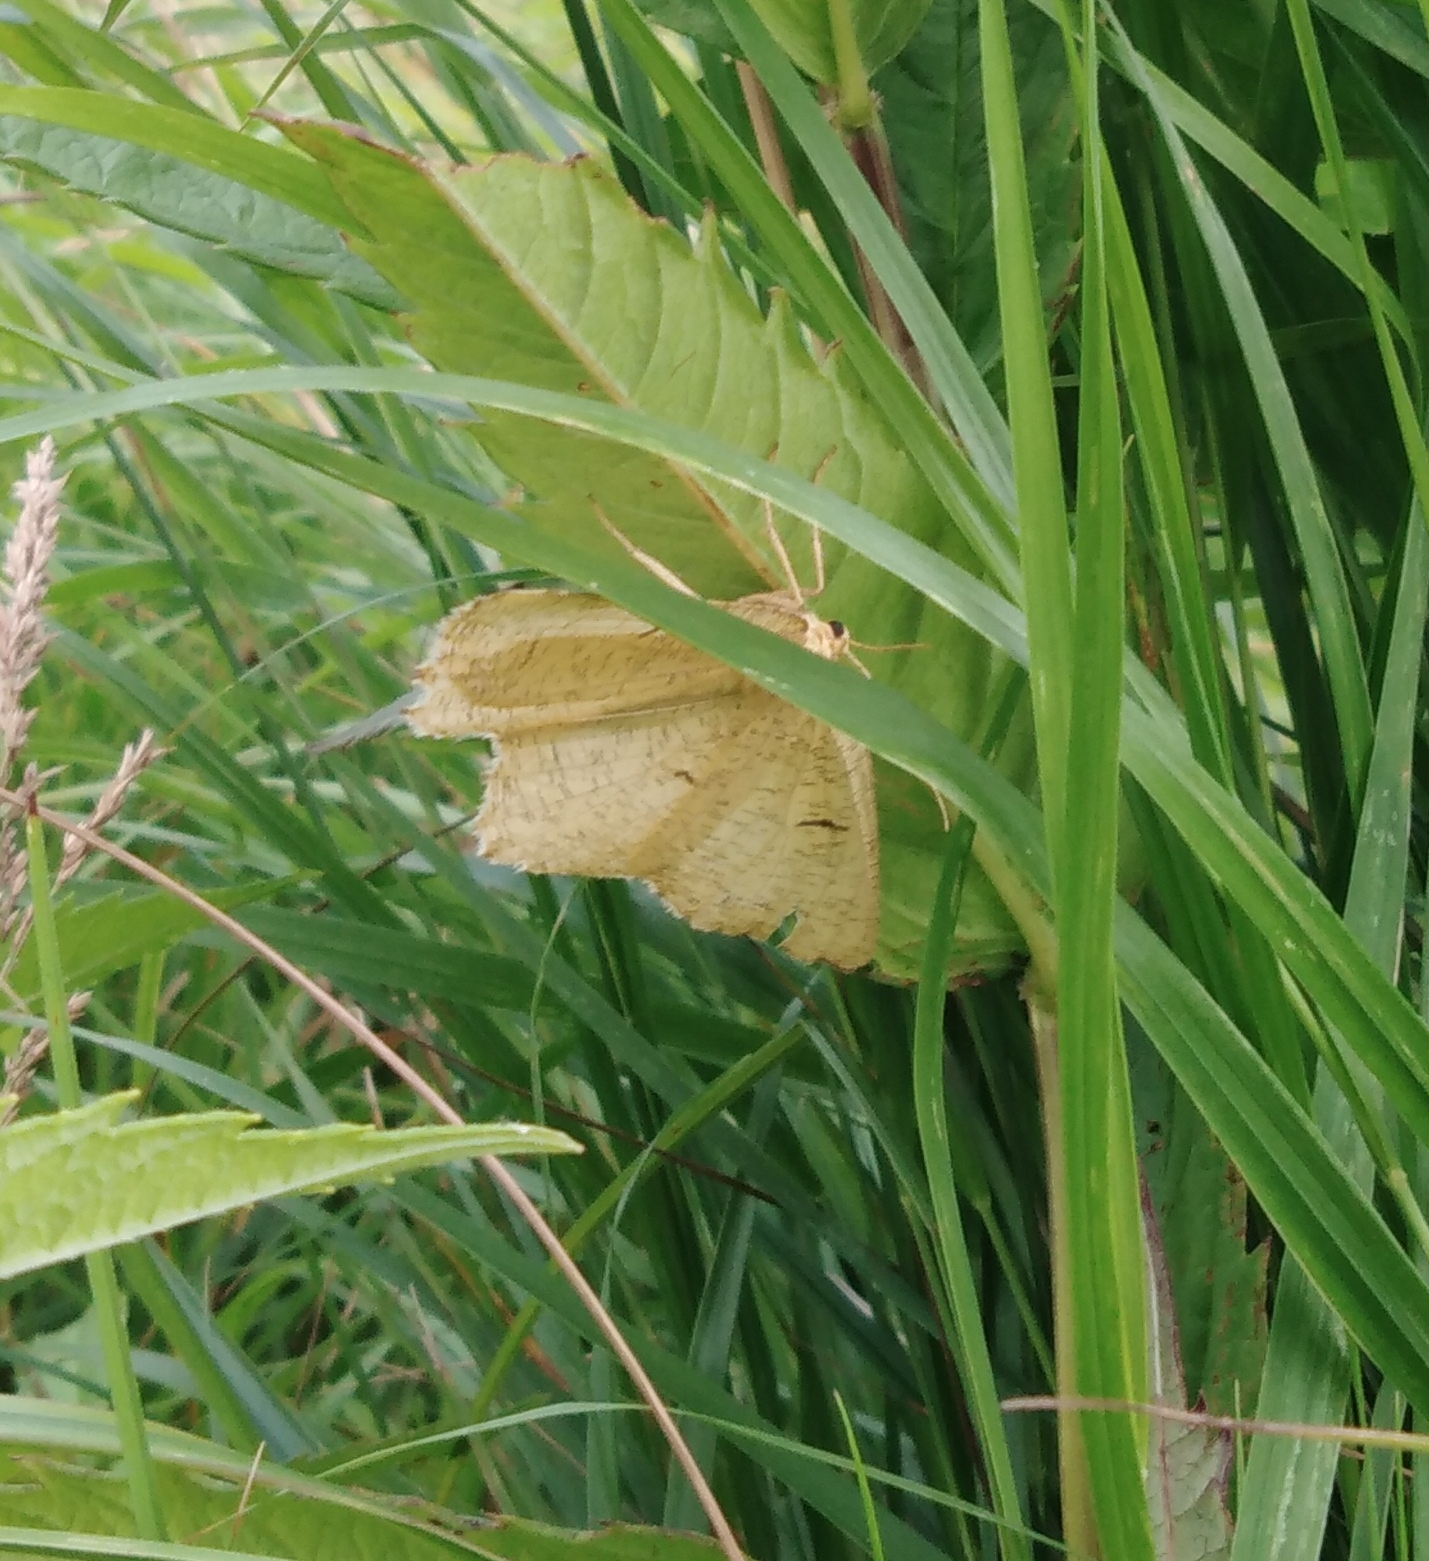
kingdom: Animalia
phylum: Arthropoda
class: Insecta
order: Lepidoptera
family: Geometridae
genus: Angerona
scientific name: Angerona prunaria
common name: Orange moth
